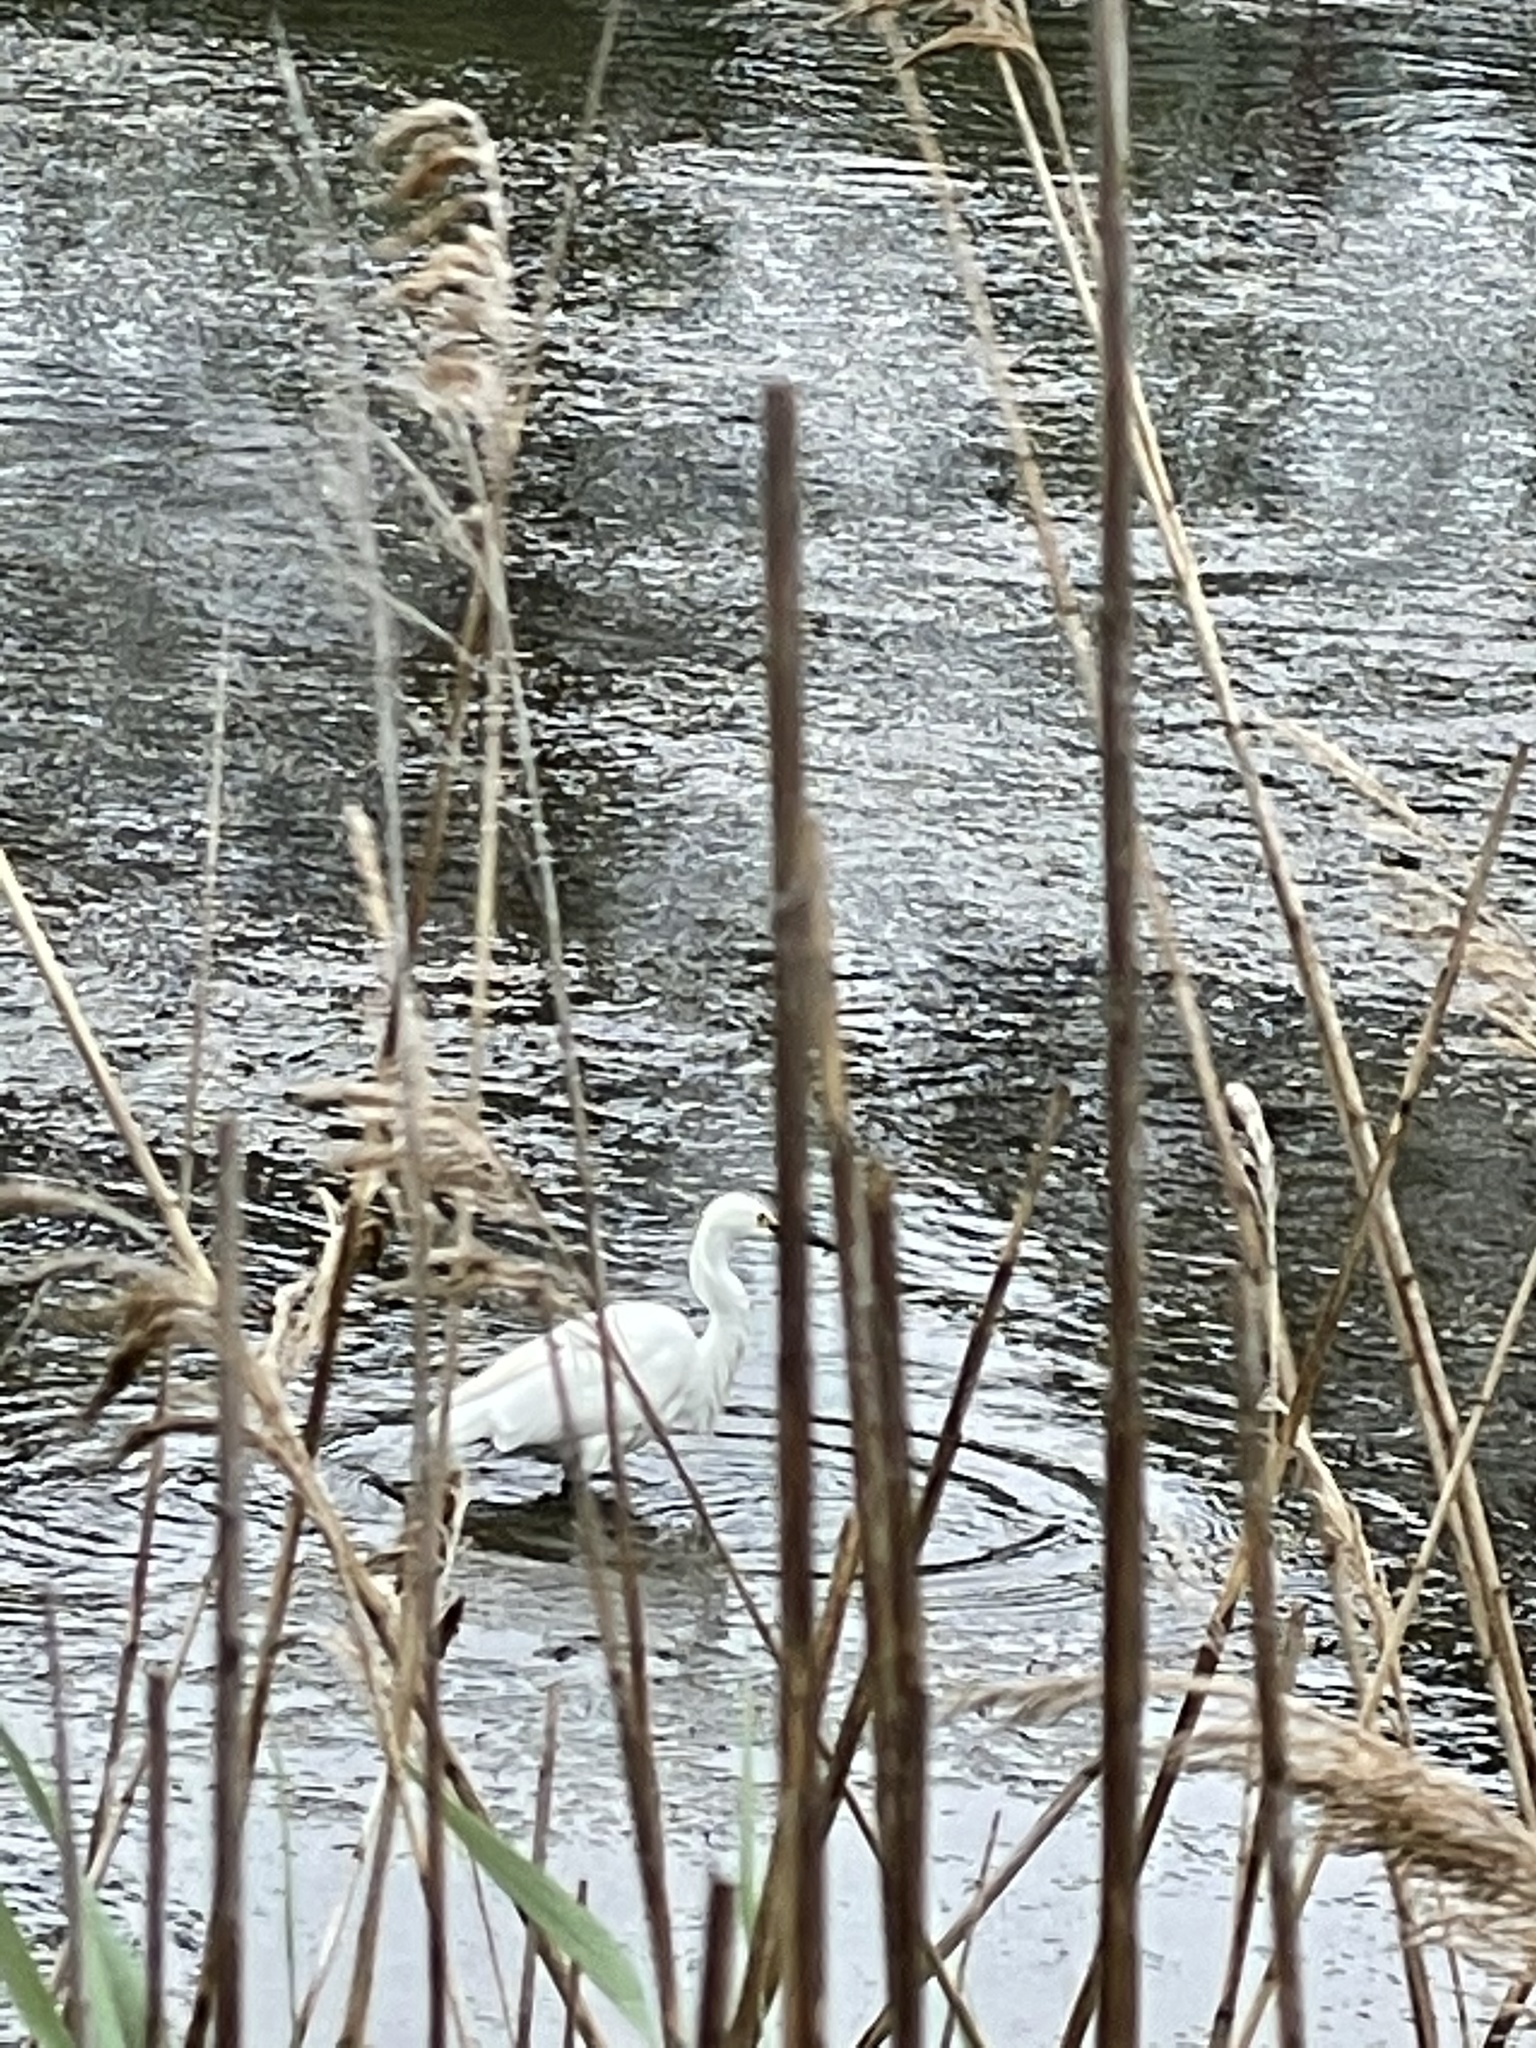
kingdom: Animalia
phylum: Chordata
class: Aves
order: Pelecaniformes
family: Ardeidae
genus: Egretta
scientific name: Egretta thula
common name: Snowy egret
